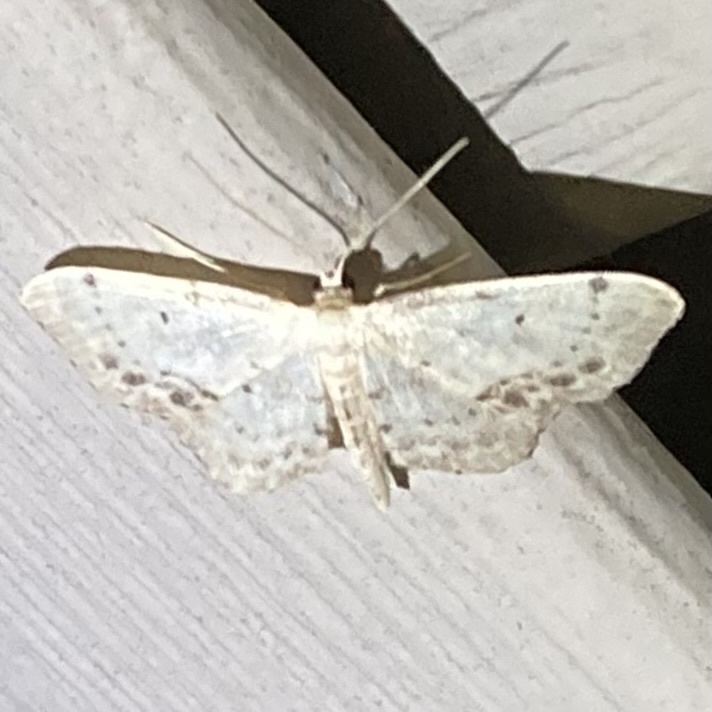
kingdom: Animalia
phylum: Arthropoda
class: Insecta
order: Lepidoptera
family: Geometridae
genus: Idaea
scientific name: Idaea dimidiata
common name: Single-dotted wave
